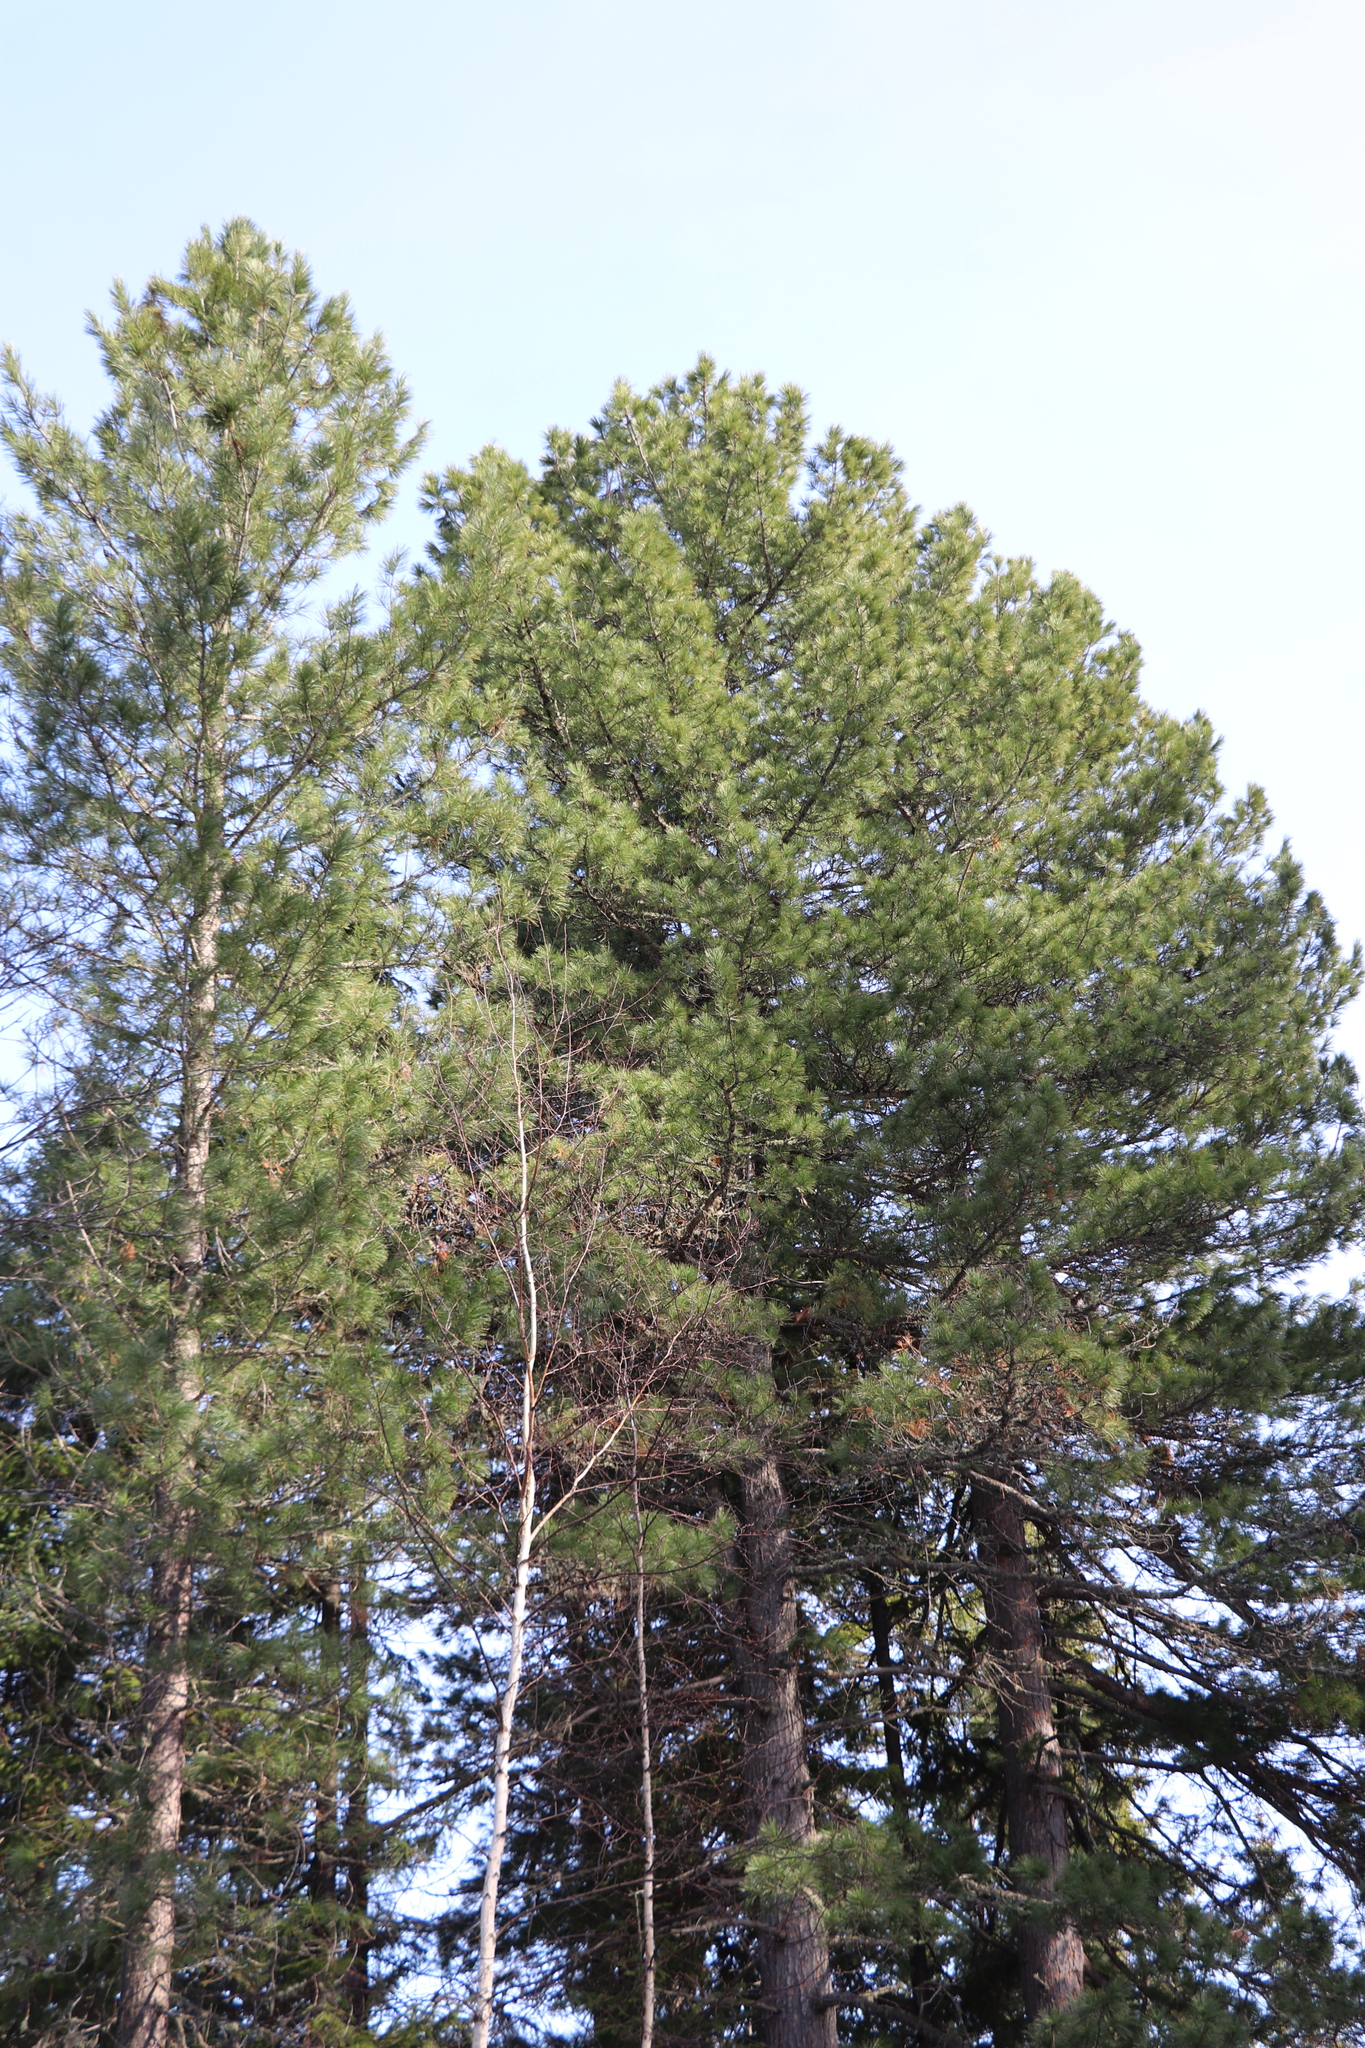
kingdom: Plantae
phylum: Tracheophyta
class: Pinopsida
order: Pinales
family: Pinaceae
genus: Pinus
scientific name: Pinus sibirica
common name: Siberian pine
